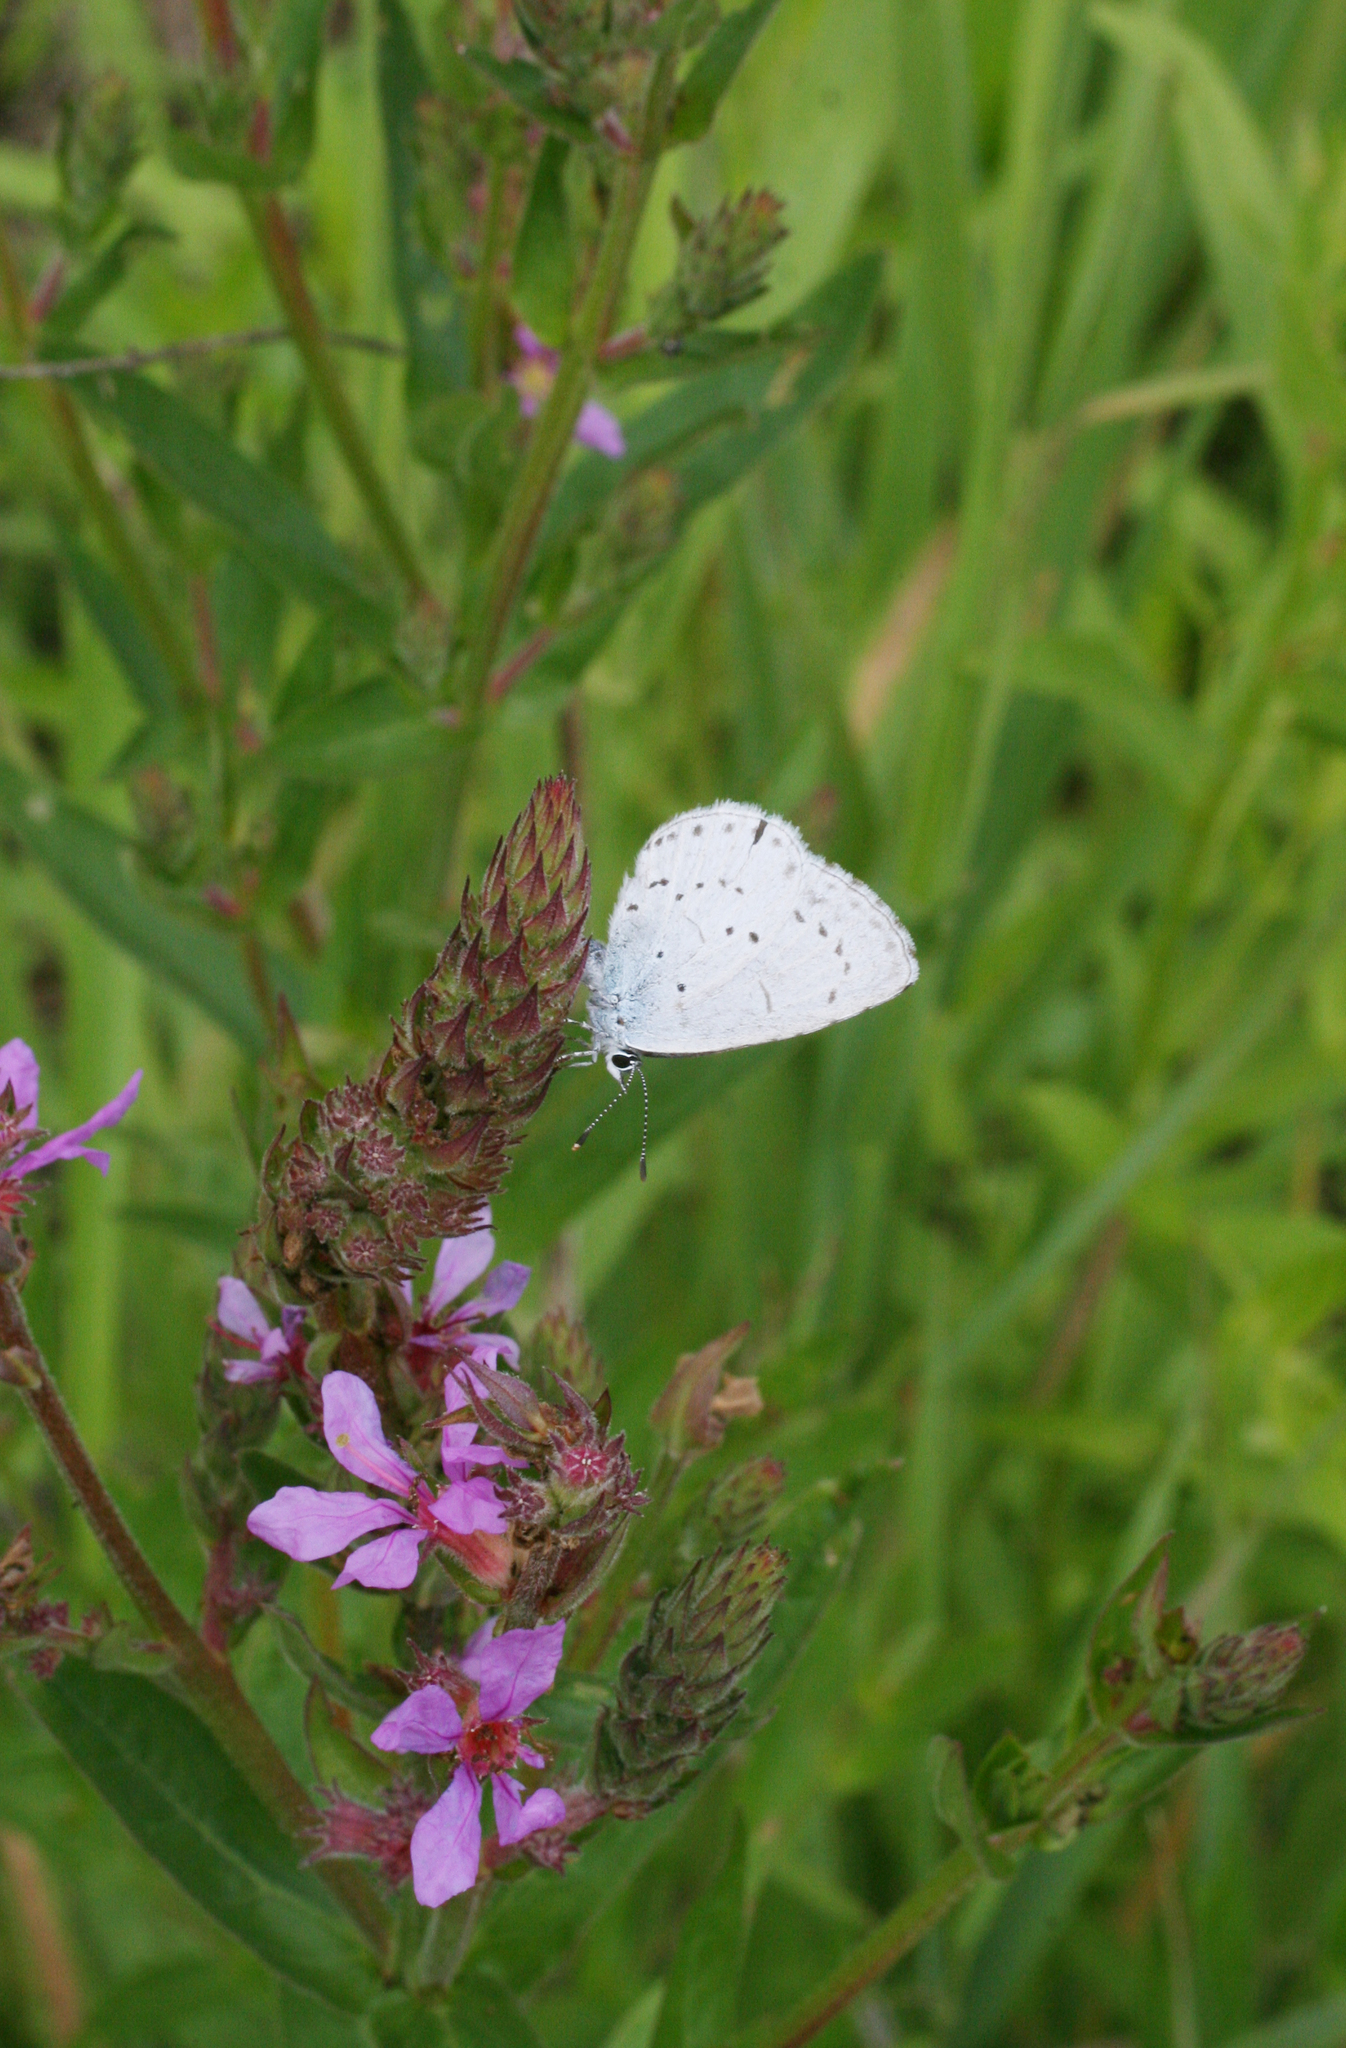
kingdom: Plantae
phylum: Tracheophyta
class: Magnoliopsida
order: Myrtales
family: Lythraceae
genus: Lythrum
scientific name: Lythrum salicaria
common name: Purple loosestrife
